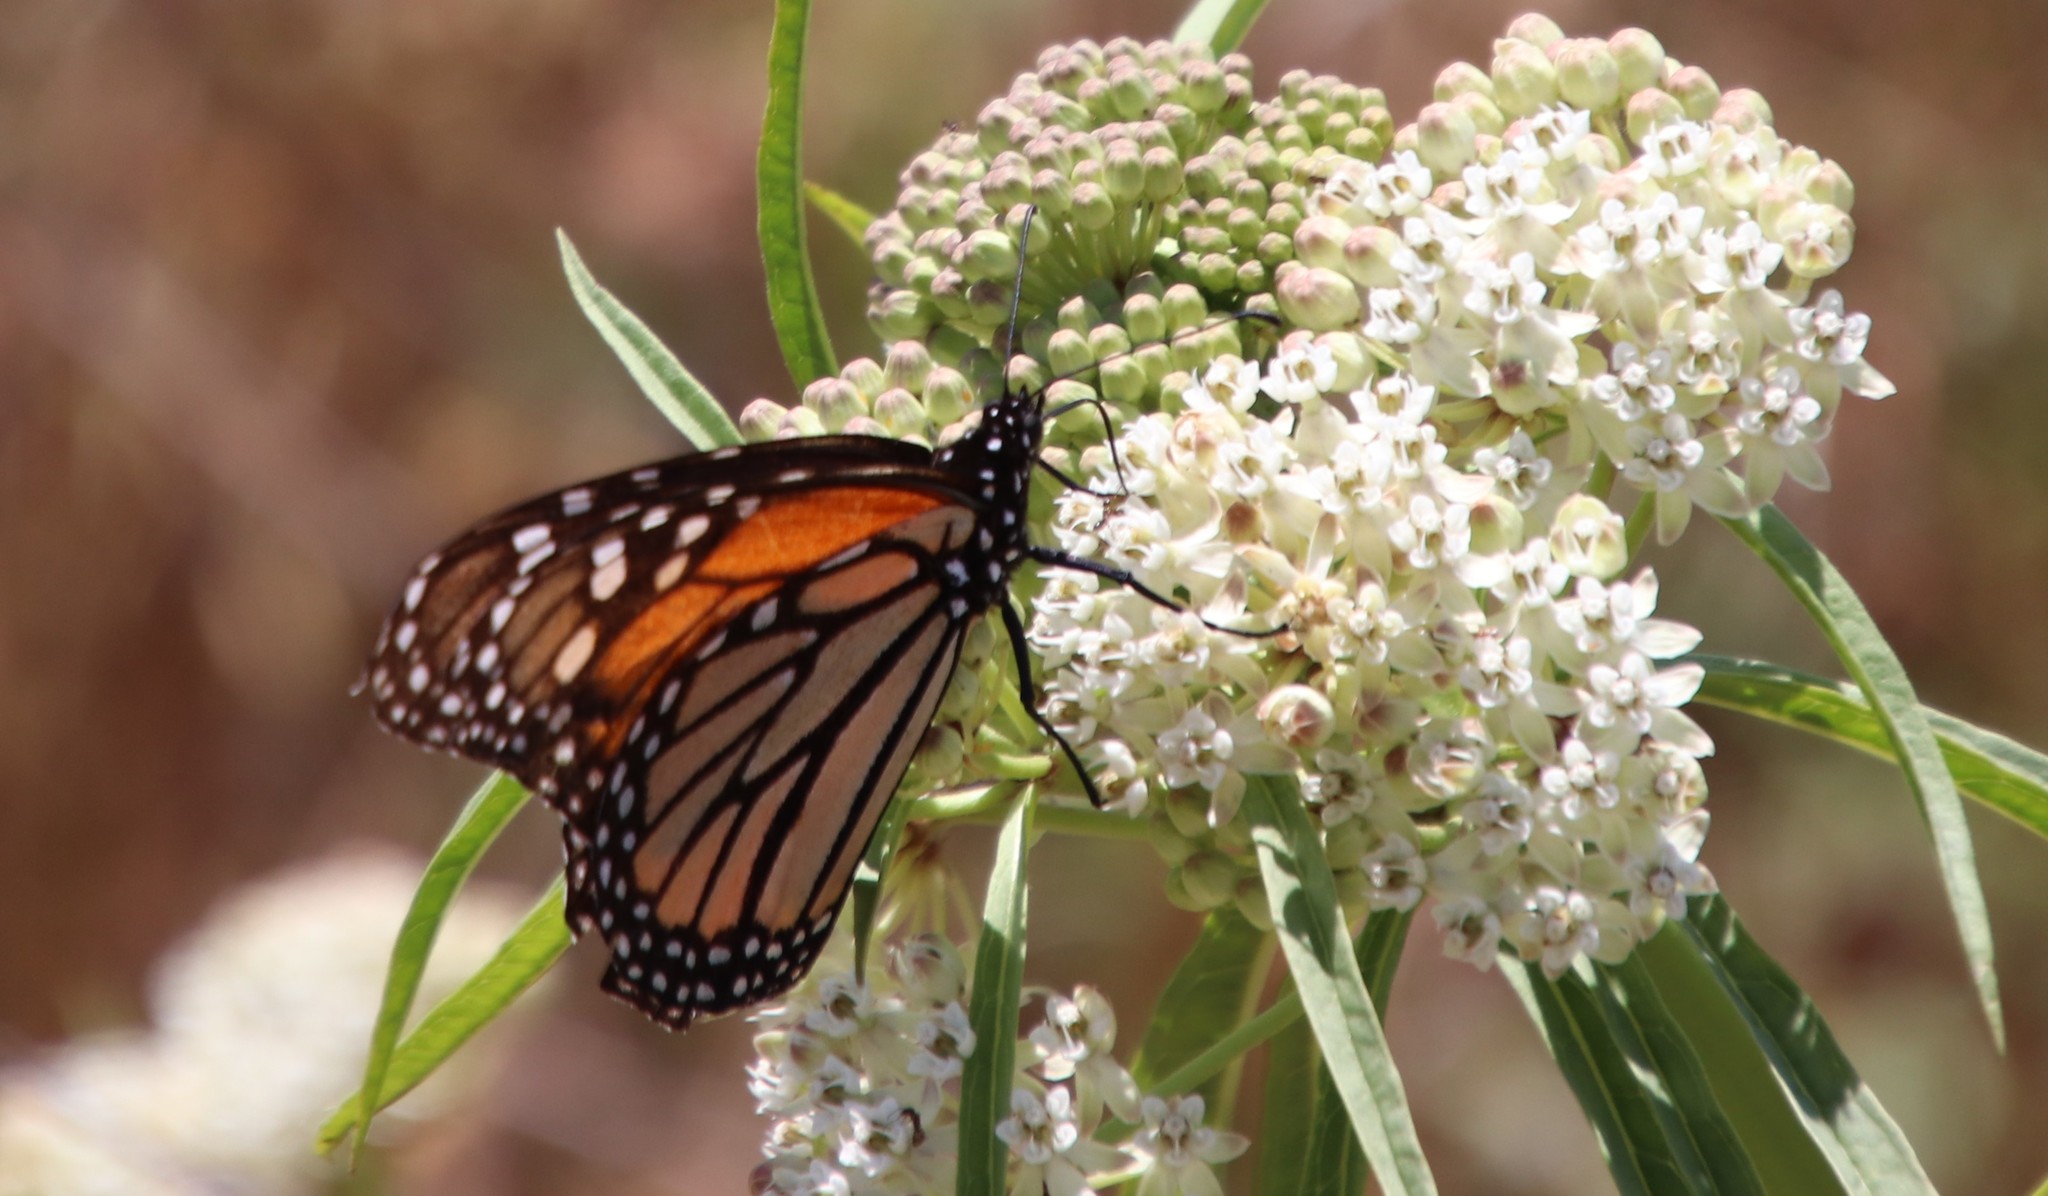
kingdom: Animalia
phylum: Arthropoda
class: Insecta
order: Lepidoptera
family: Nymphalidae
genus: Danaus
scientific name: Danaus plexippus
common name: Monarch
